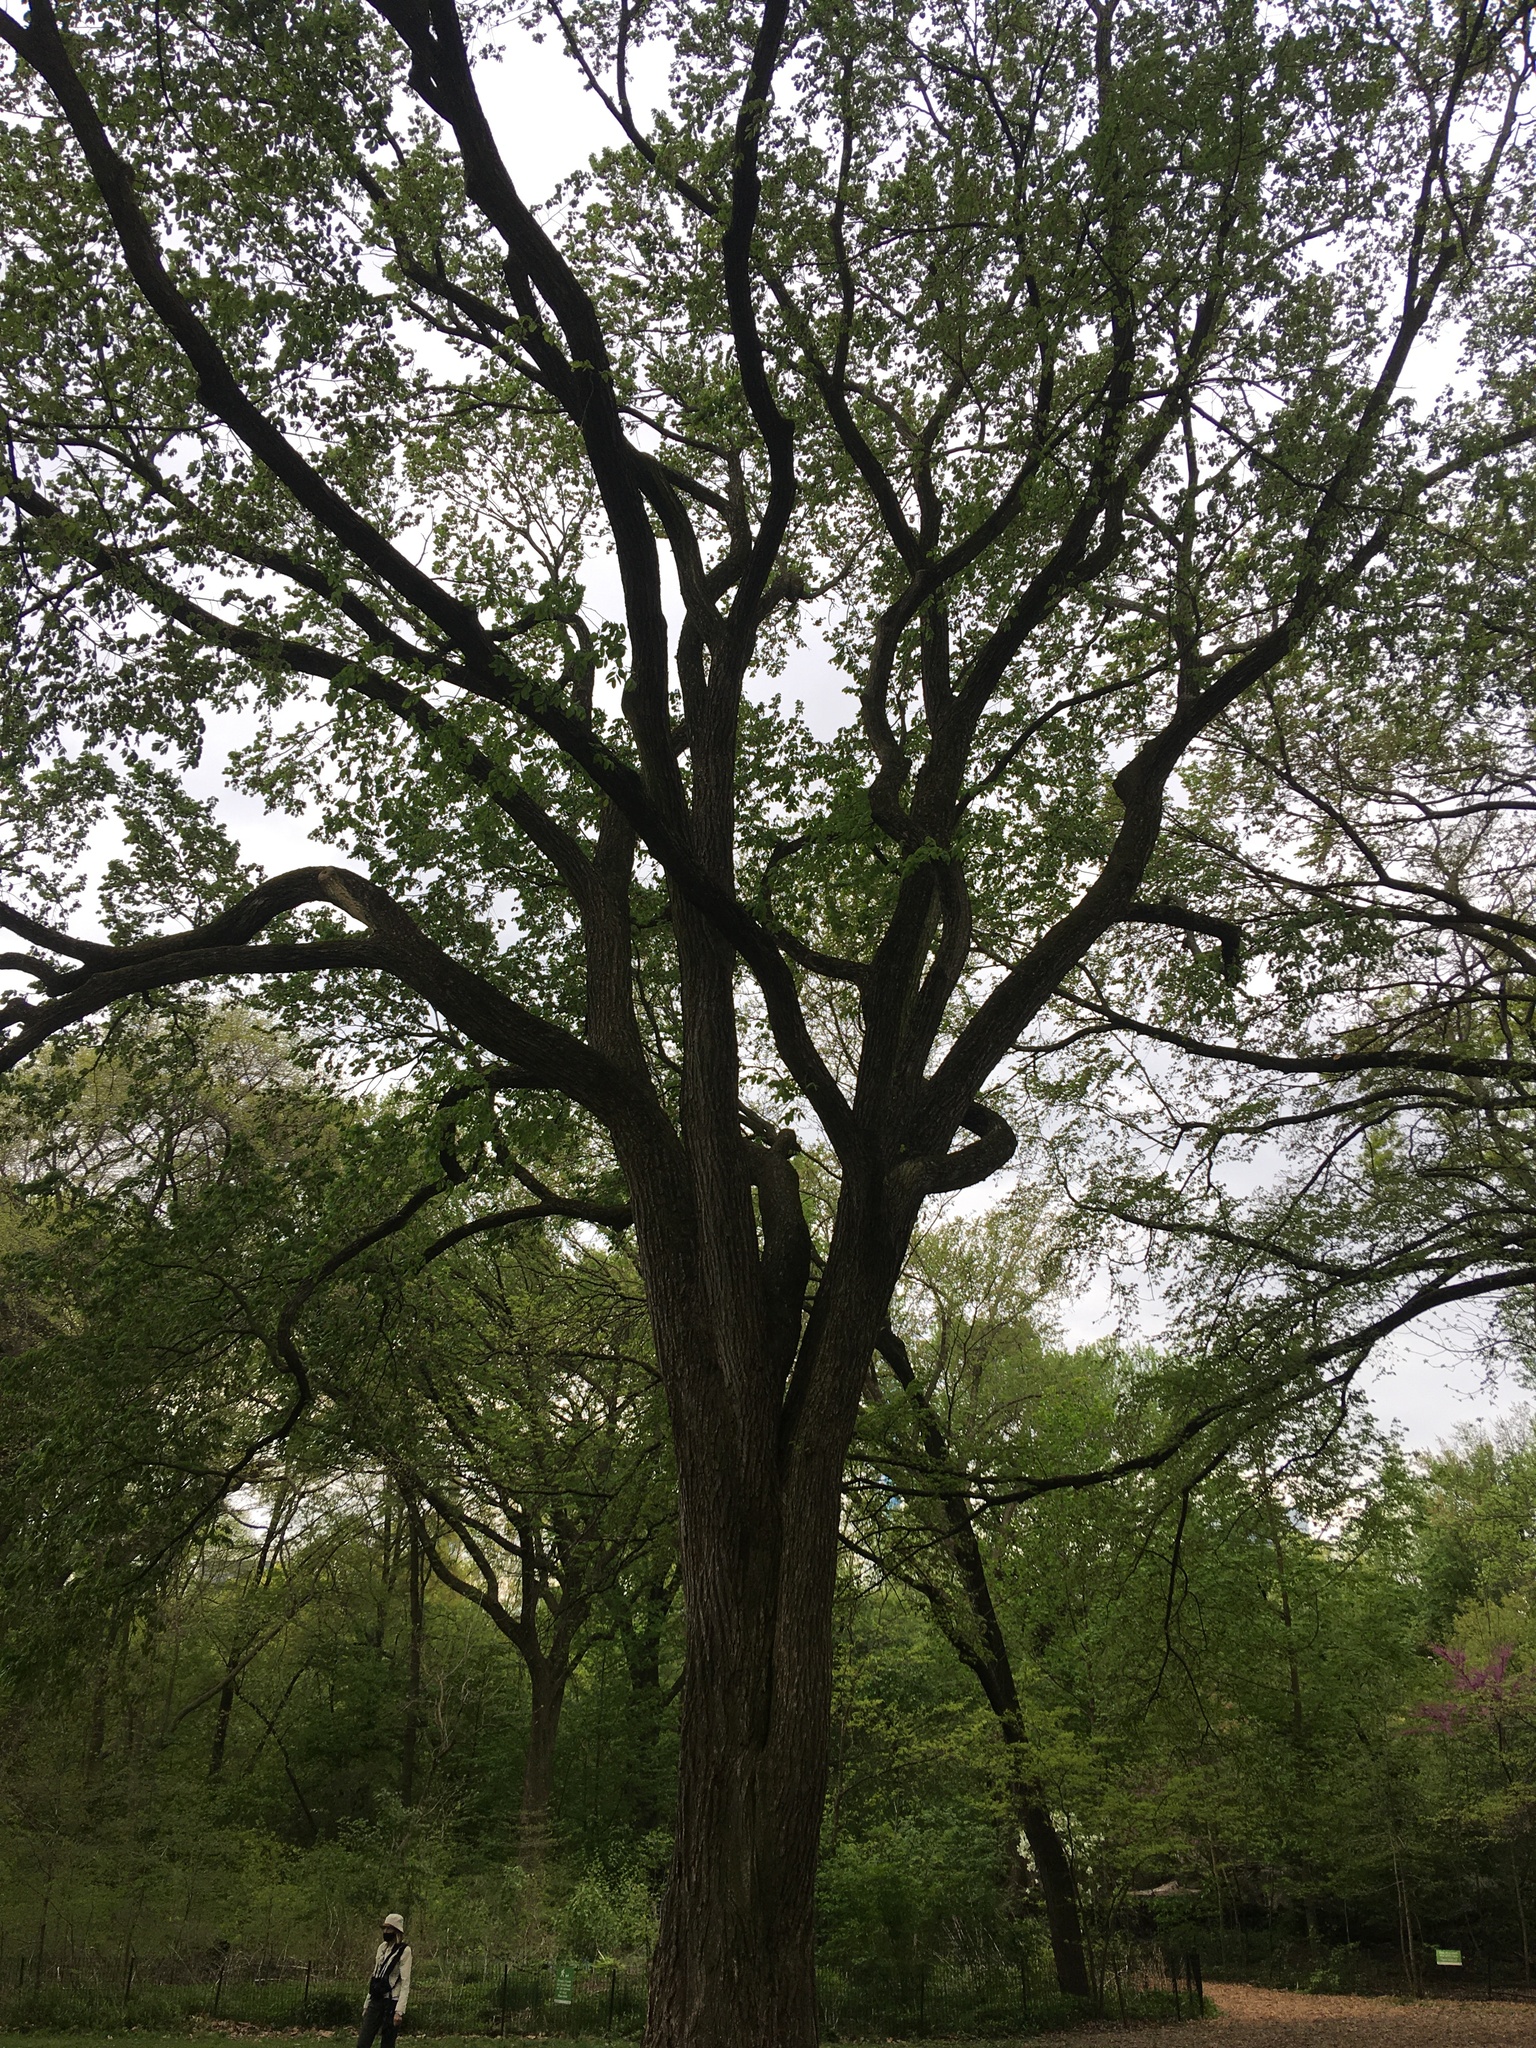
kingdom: Plantae
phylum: Tracheophyta
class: Magnoliopsida
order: Rosales
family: Ulmaceae
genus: Ulmus
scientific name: Ulmus americana
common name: American elm
